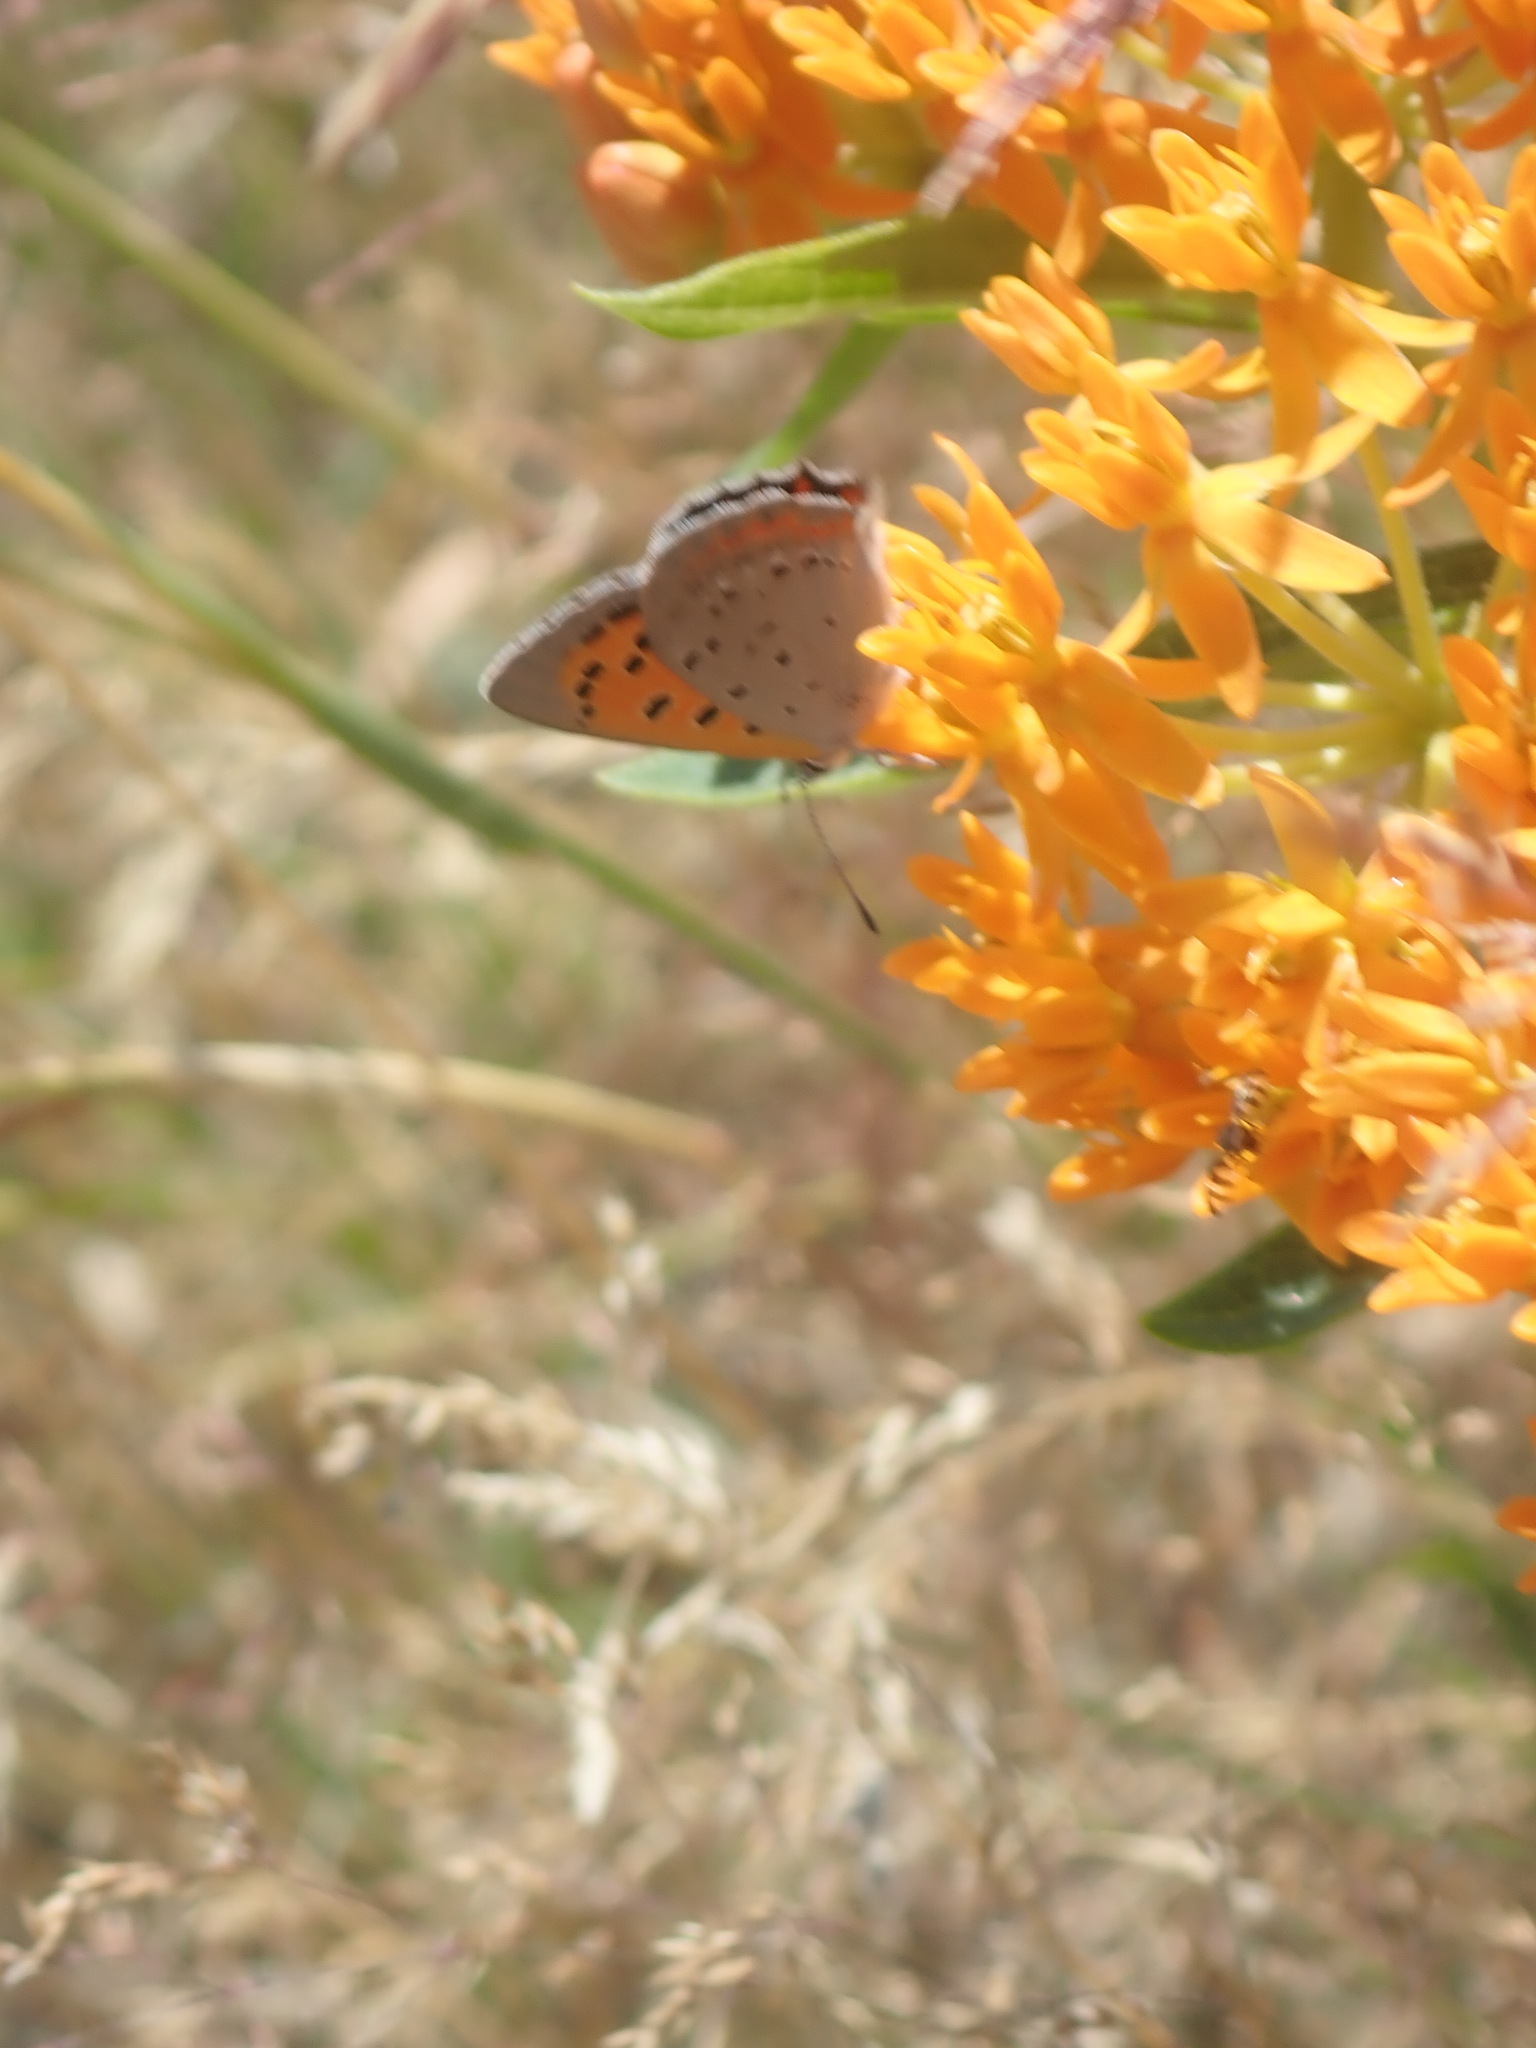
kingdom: Animalia
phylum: Arthropoda
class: Insecta
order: Lepidoptera
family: Lycaenidae
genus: Lycaena
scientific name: Lycaena hypophlaeas
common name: American copper
